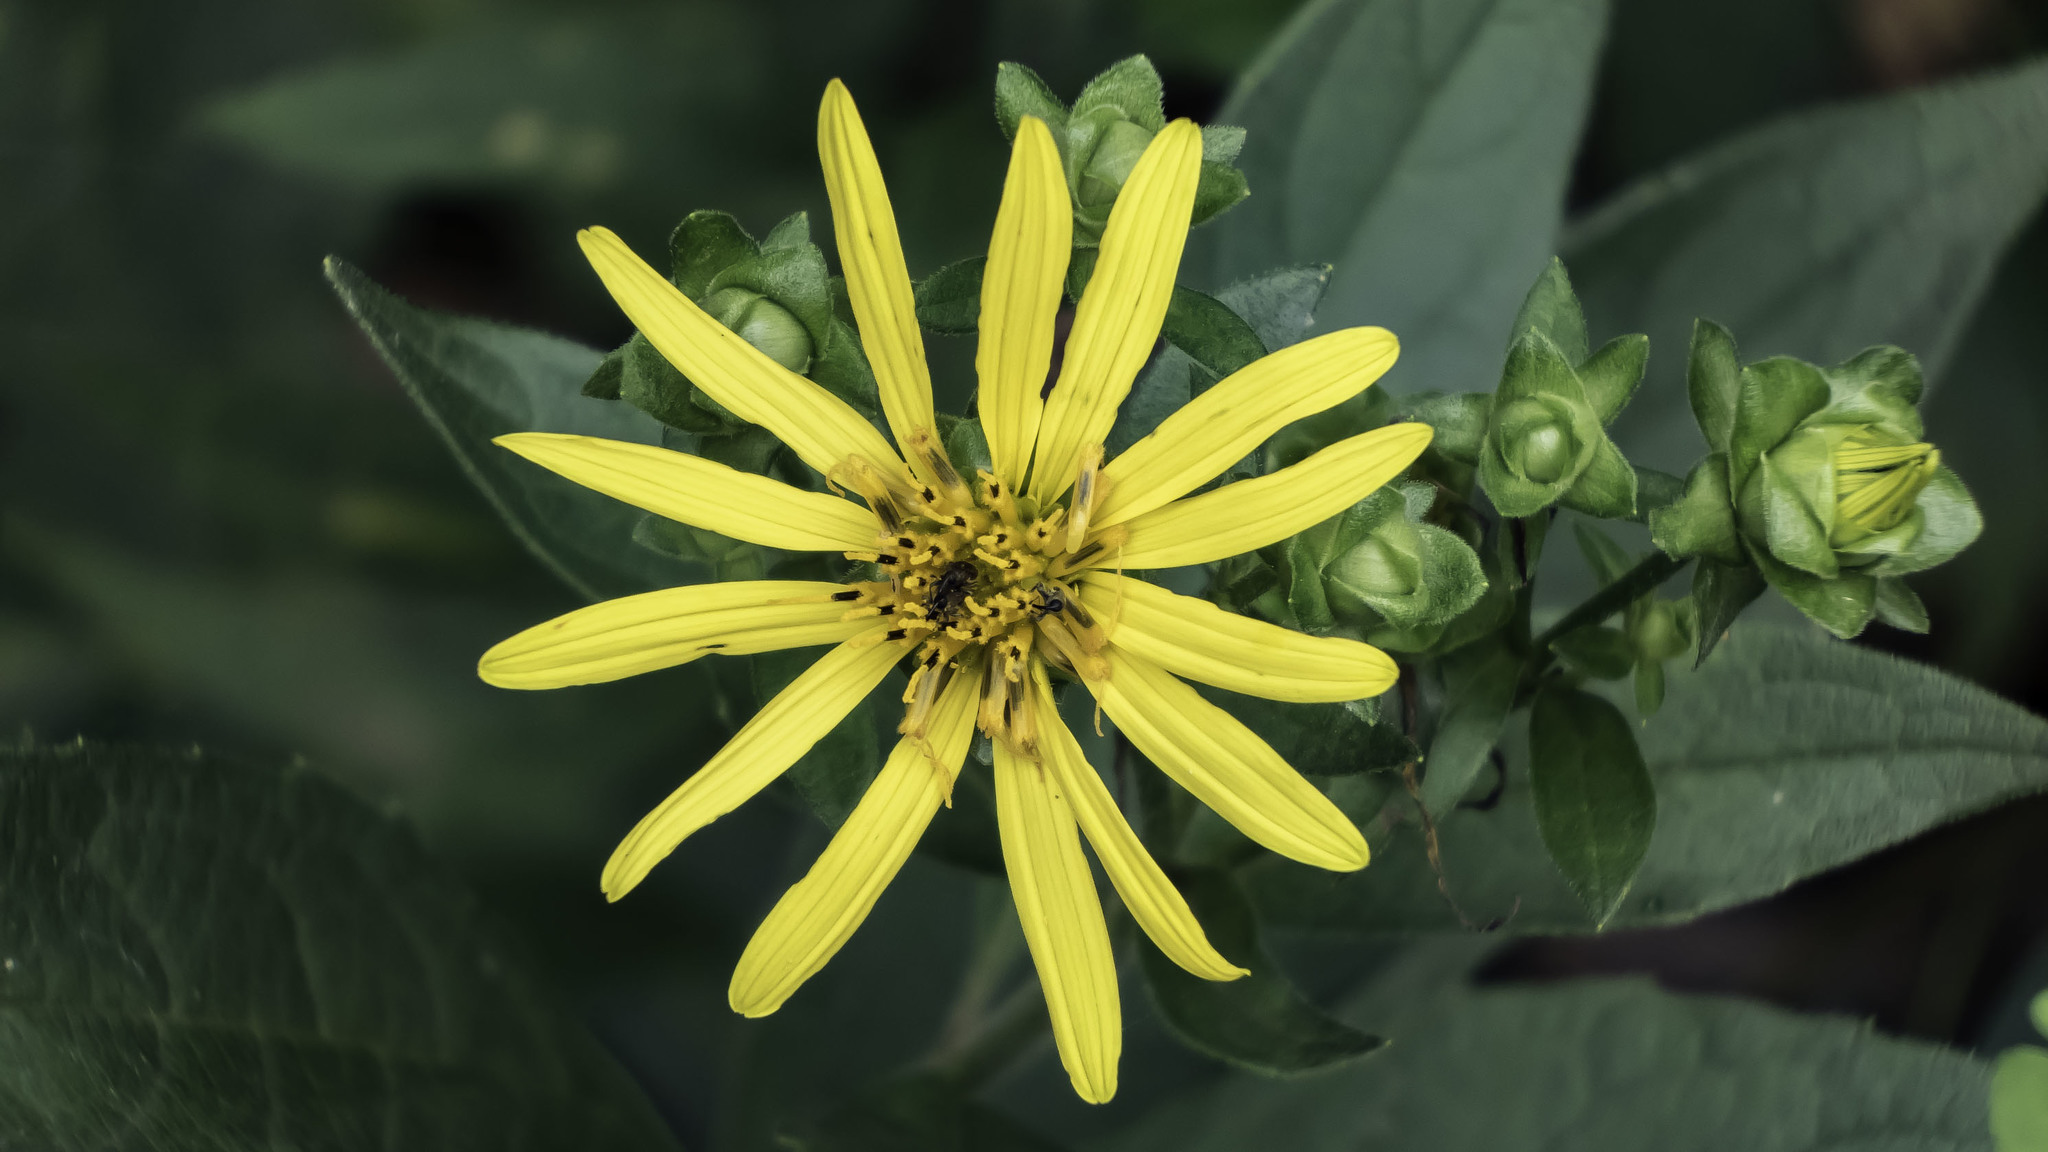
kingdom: Plantae
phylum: Tracheophyta
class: Magnoliopsida
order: Asterales
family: Asteraceae
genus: Silphium
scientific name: Silphium asteriscus
